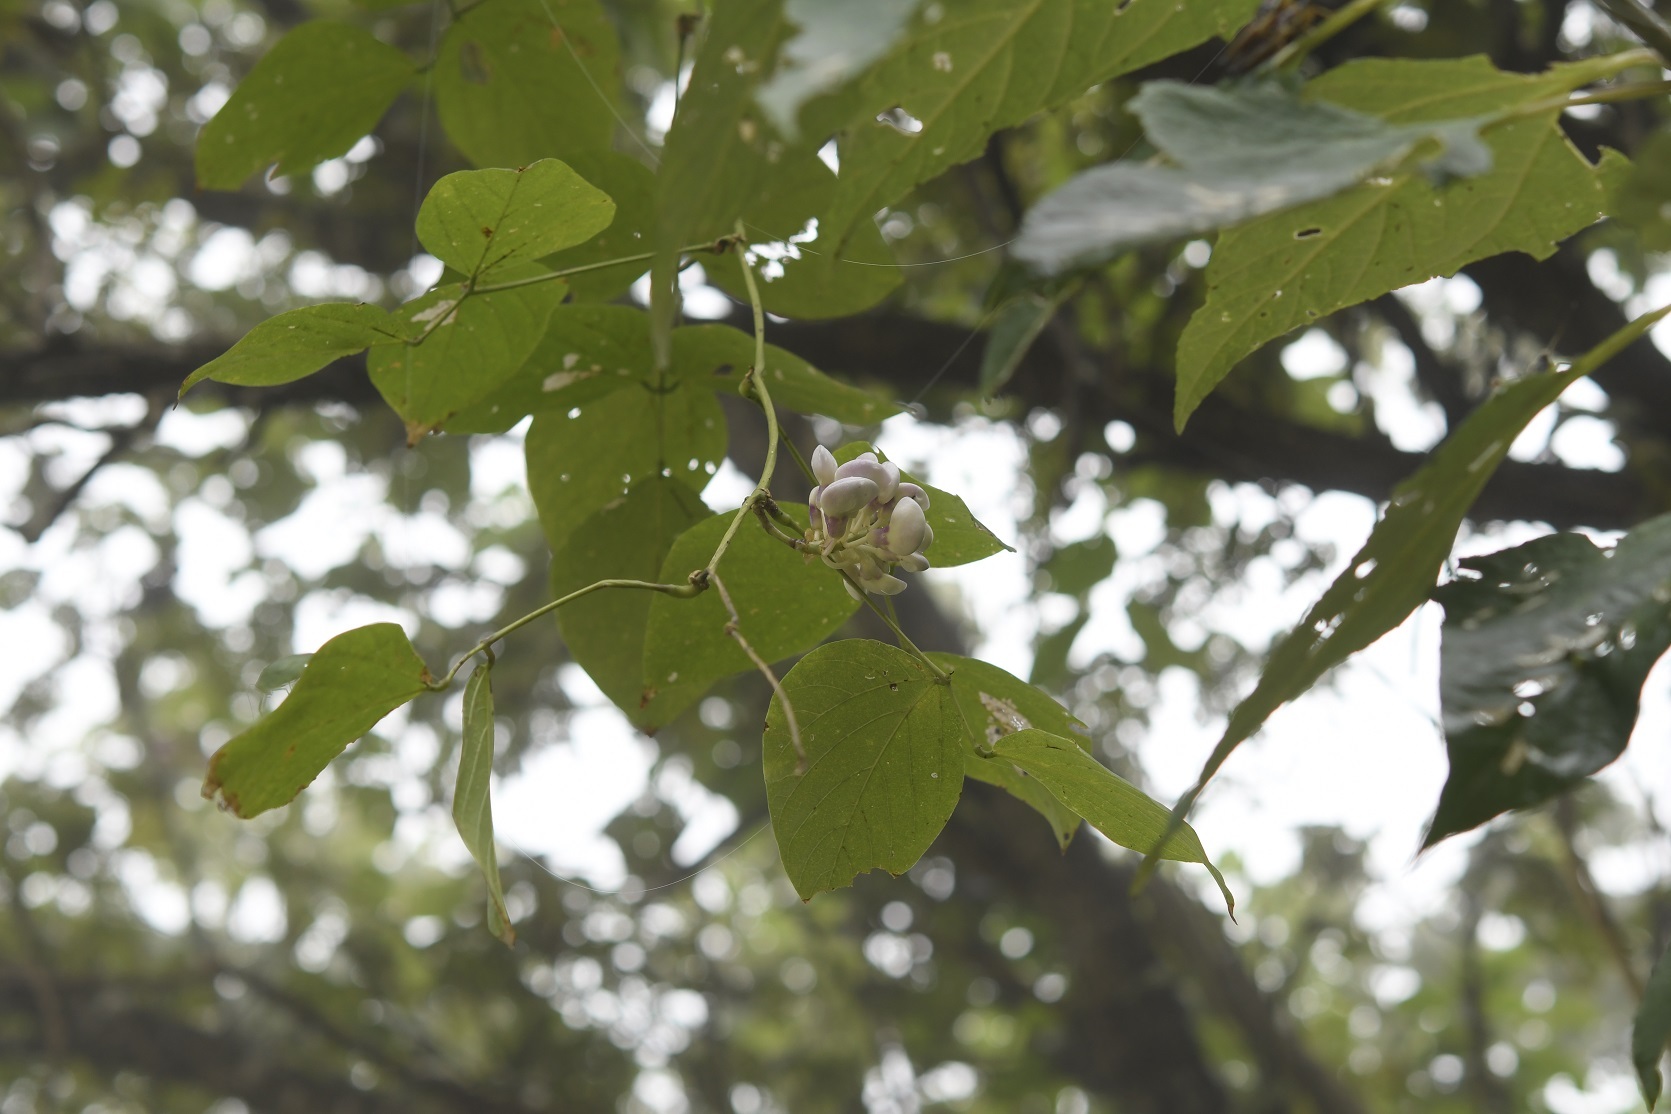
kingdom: Plantae
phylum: Tracheophyta
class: Magnoliopsida
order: Fabales
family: Fabaceae
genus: Ramirezella
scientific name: Ramirezella penduliflora
